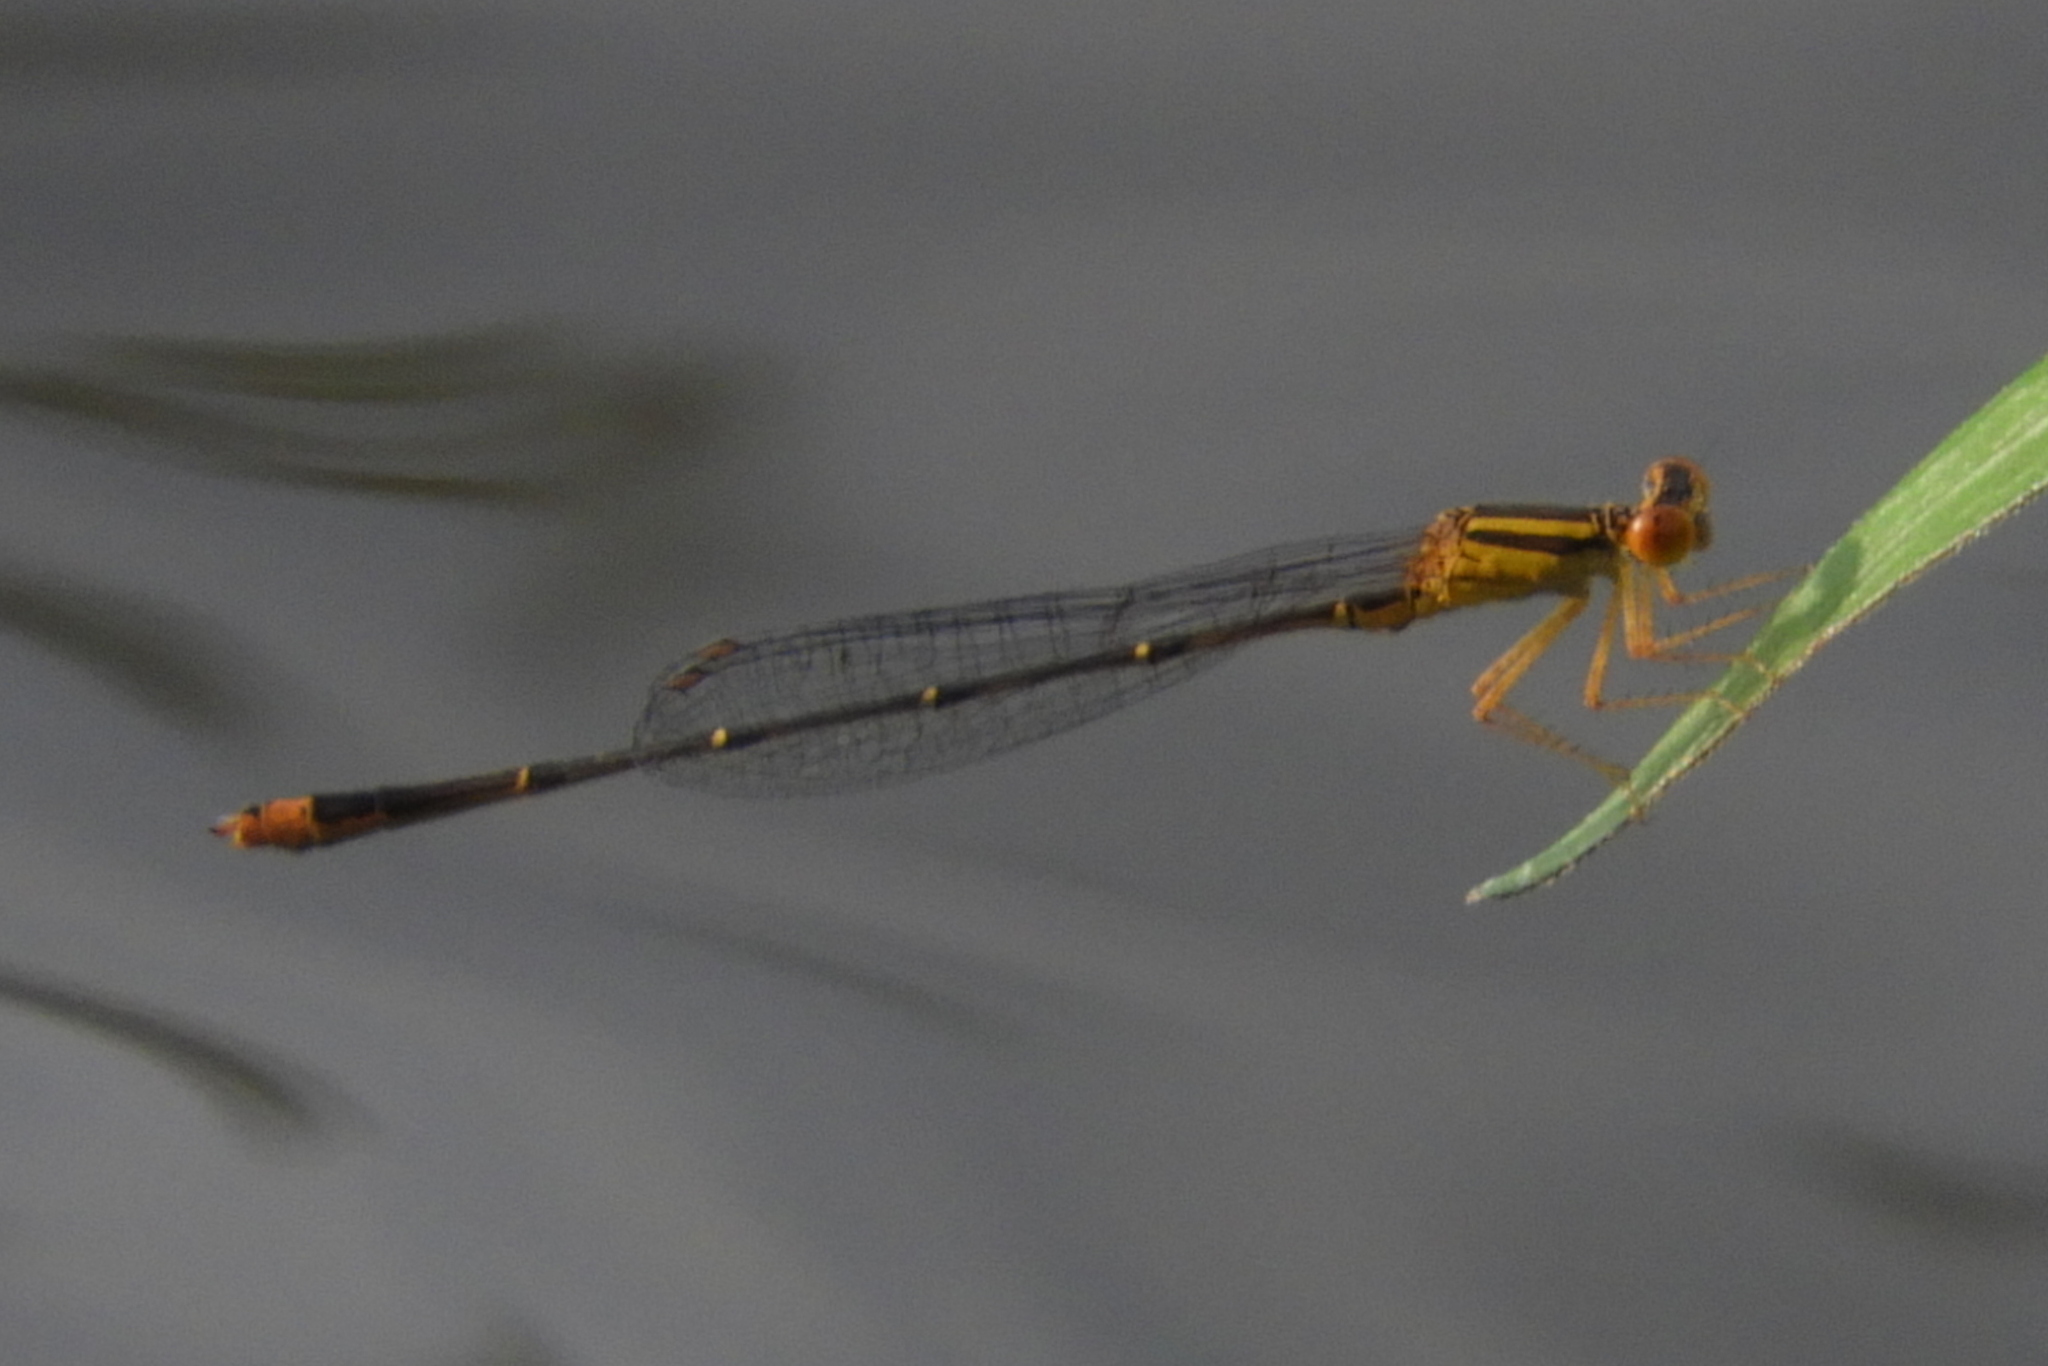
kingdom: Animalia
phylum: Arthropoda
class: Insecta
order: Odonata
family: Coenagrionidae
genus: Enallagma
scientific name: Enallagma signatum
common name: Orange bluet
